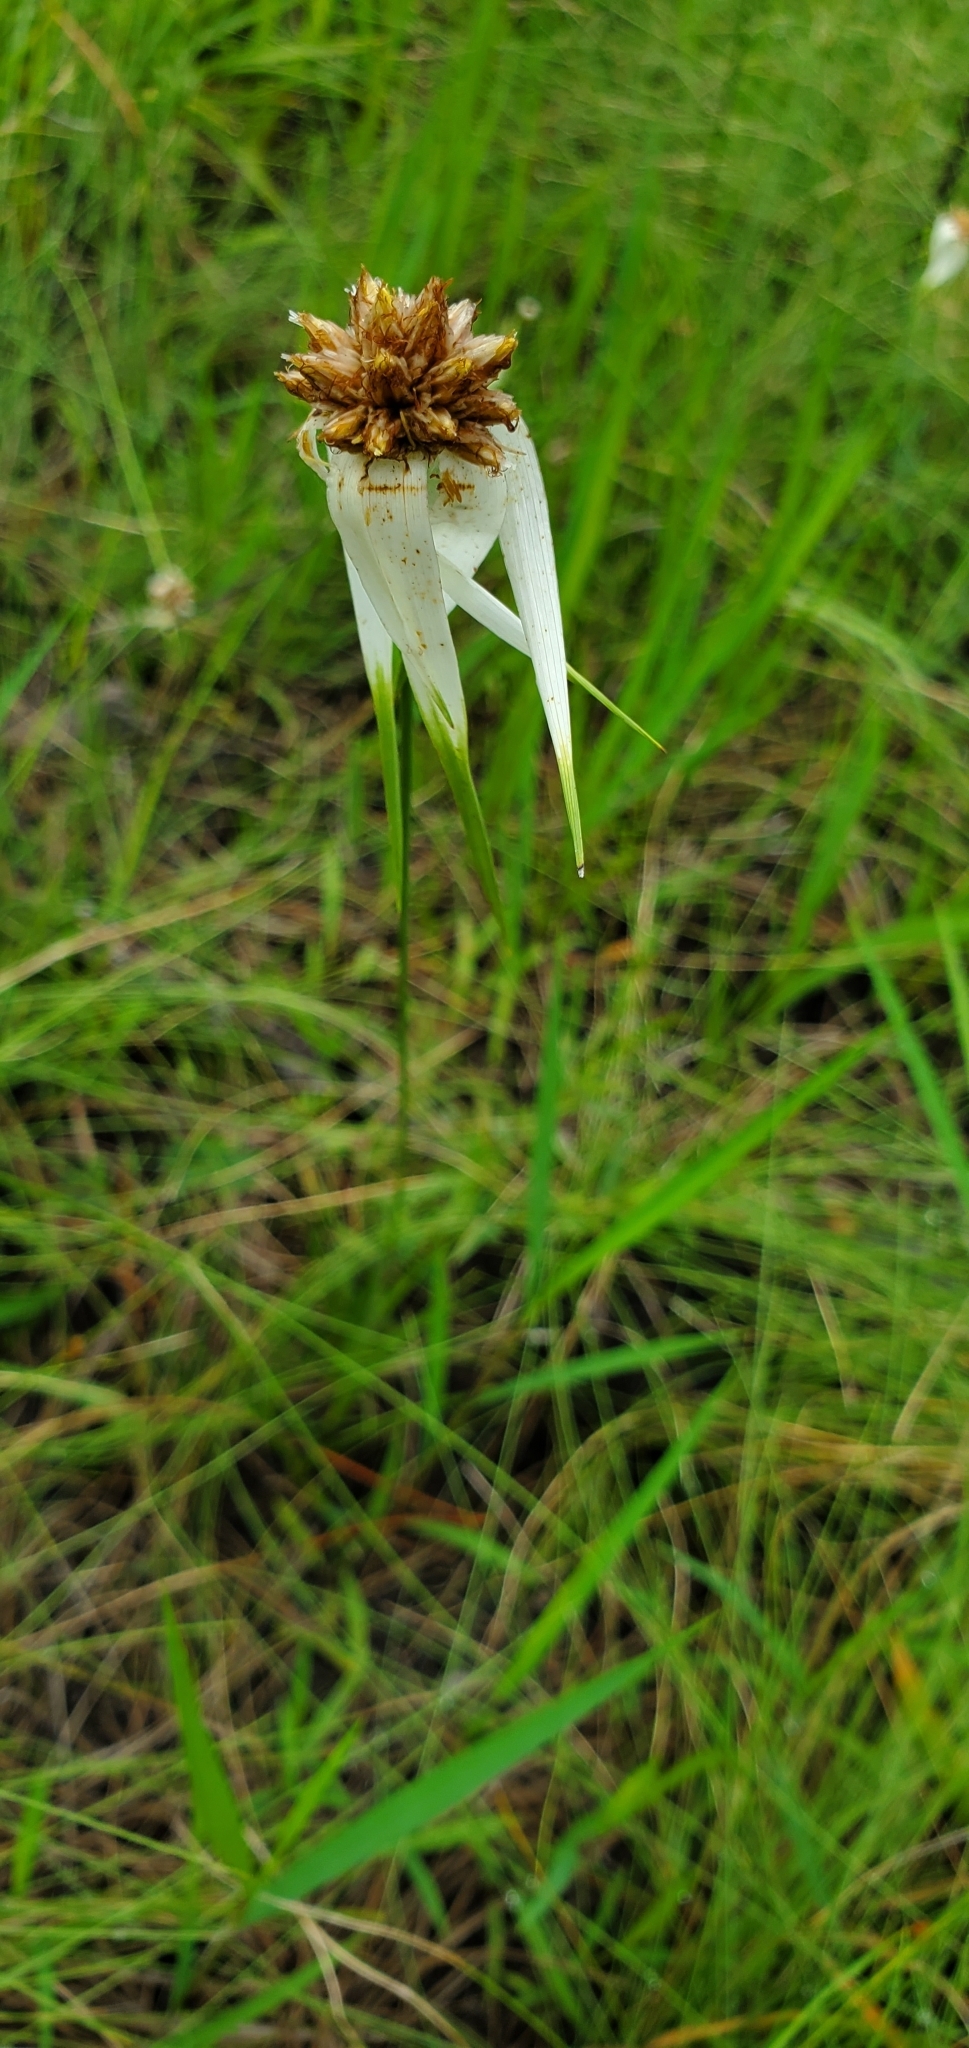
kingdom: Plantae
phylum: Tracheophyta
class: Liliopsida
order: Poales
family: Cyperaceae
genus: Rhynchospora
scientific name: Rhynchospora latifolia
